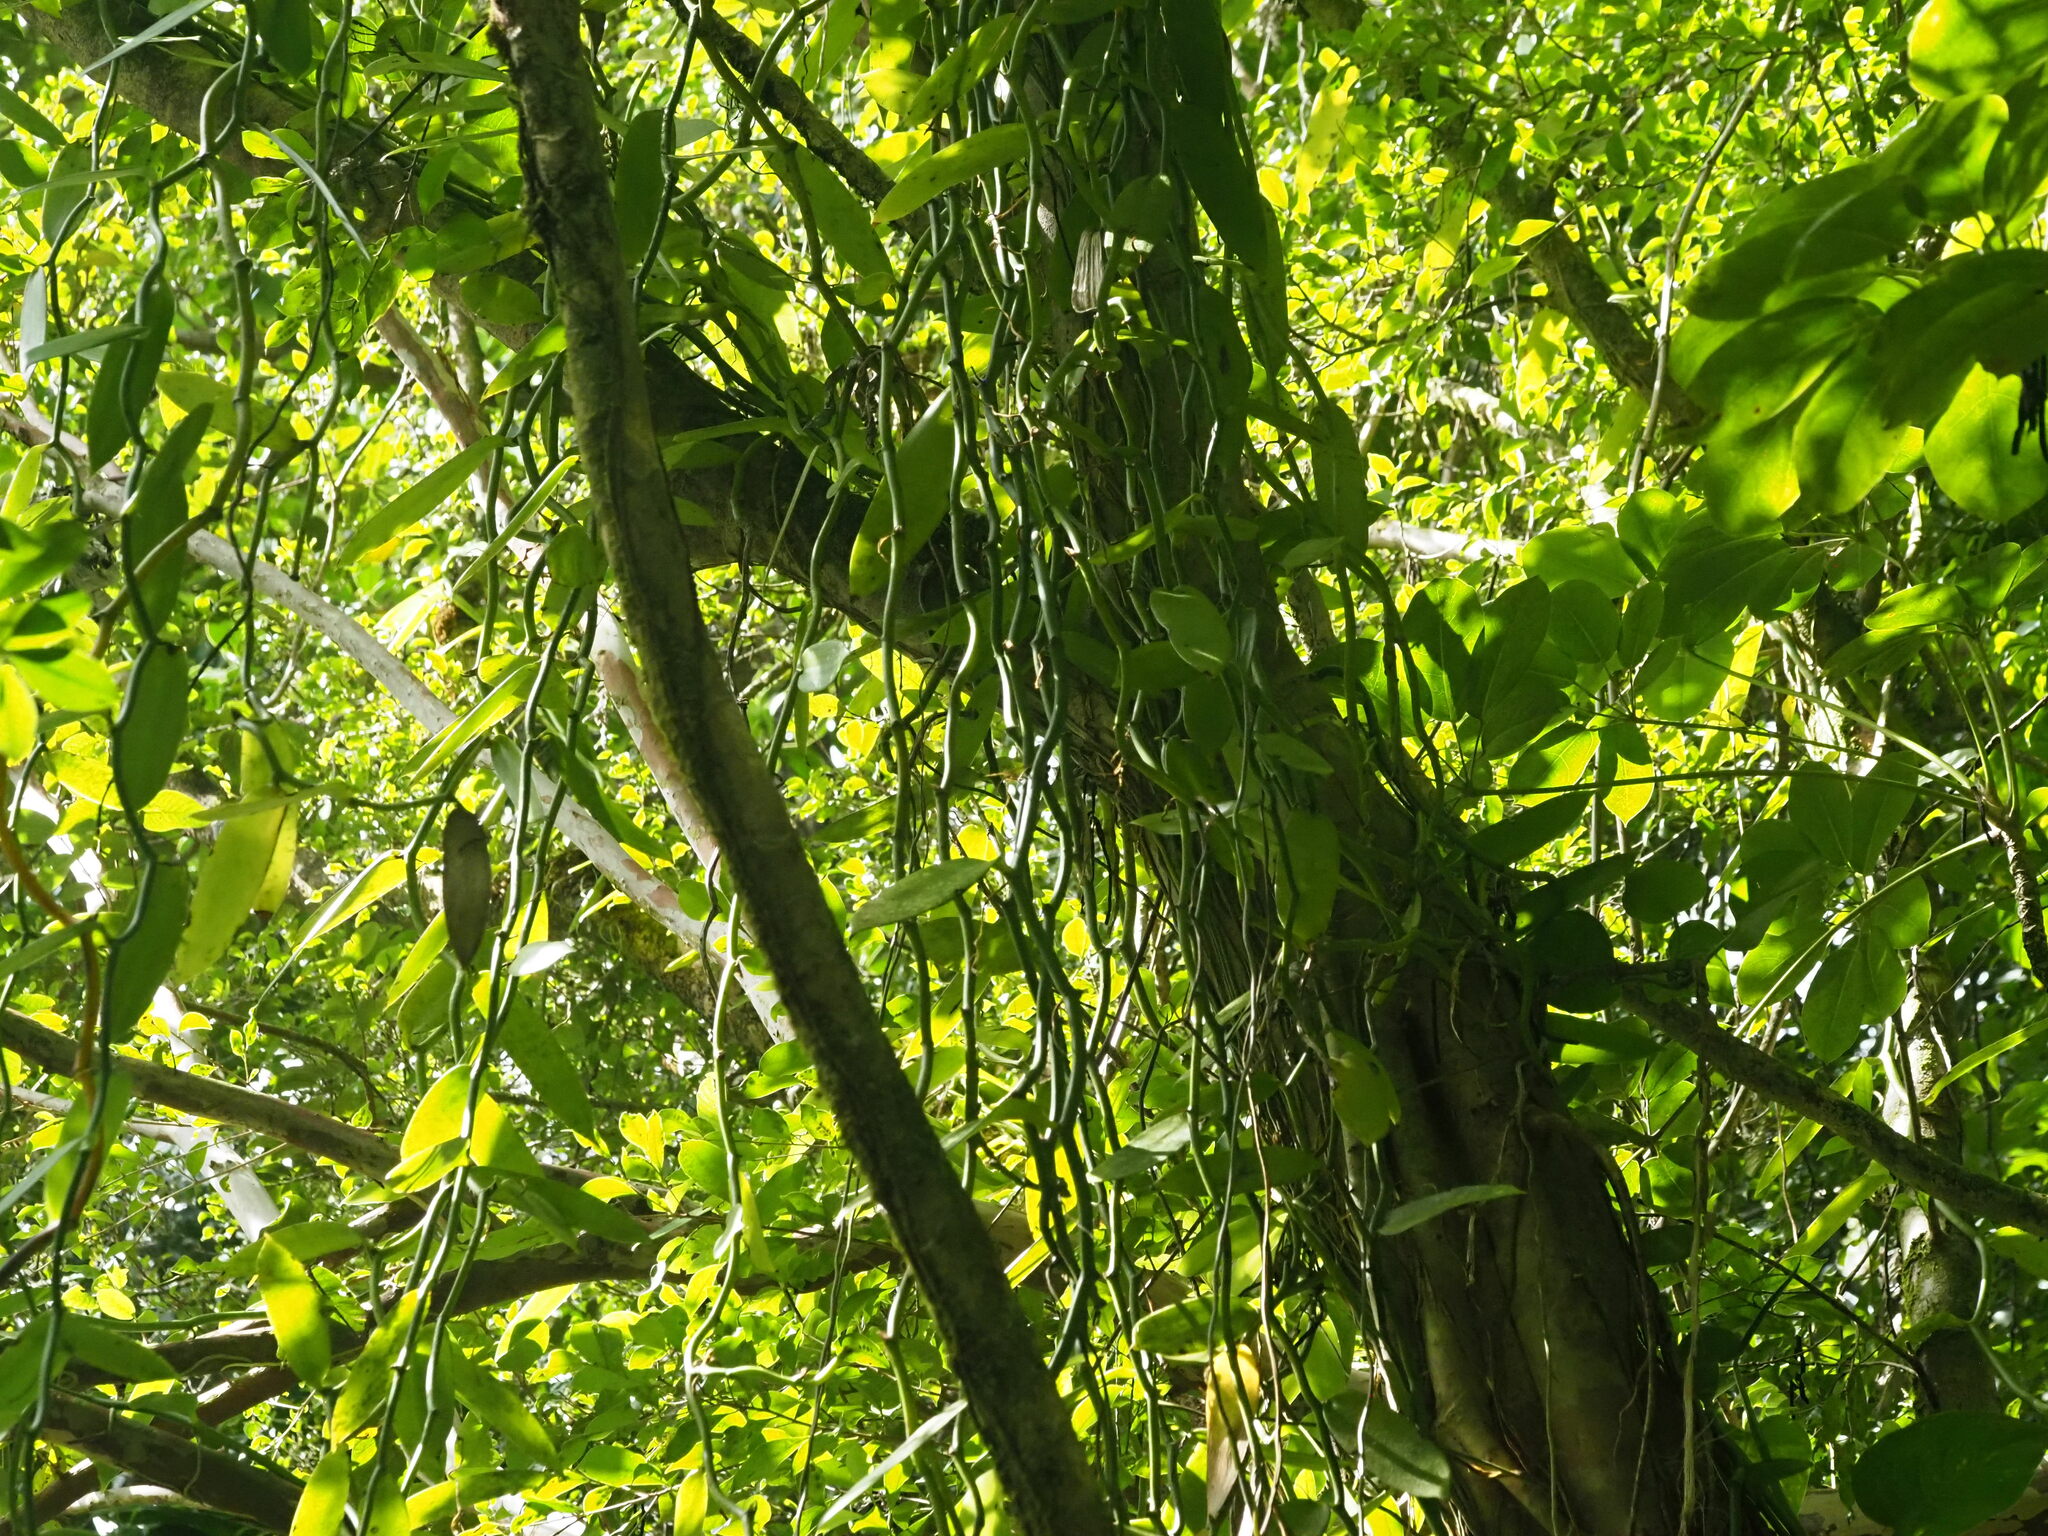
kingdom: Plantae
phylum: Tracheophyta
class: Liliopsida
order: Asparagales
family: Orchidaceae
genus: Vanilla
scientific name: Vanilla planifolia
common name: Vanilla
